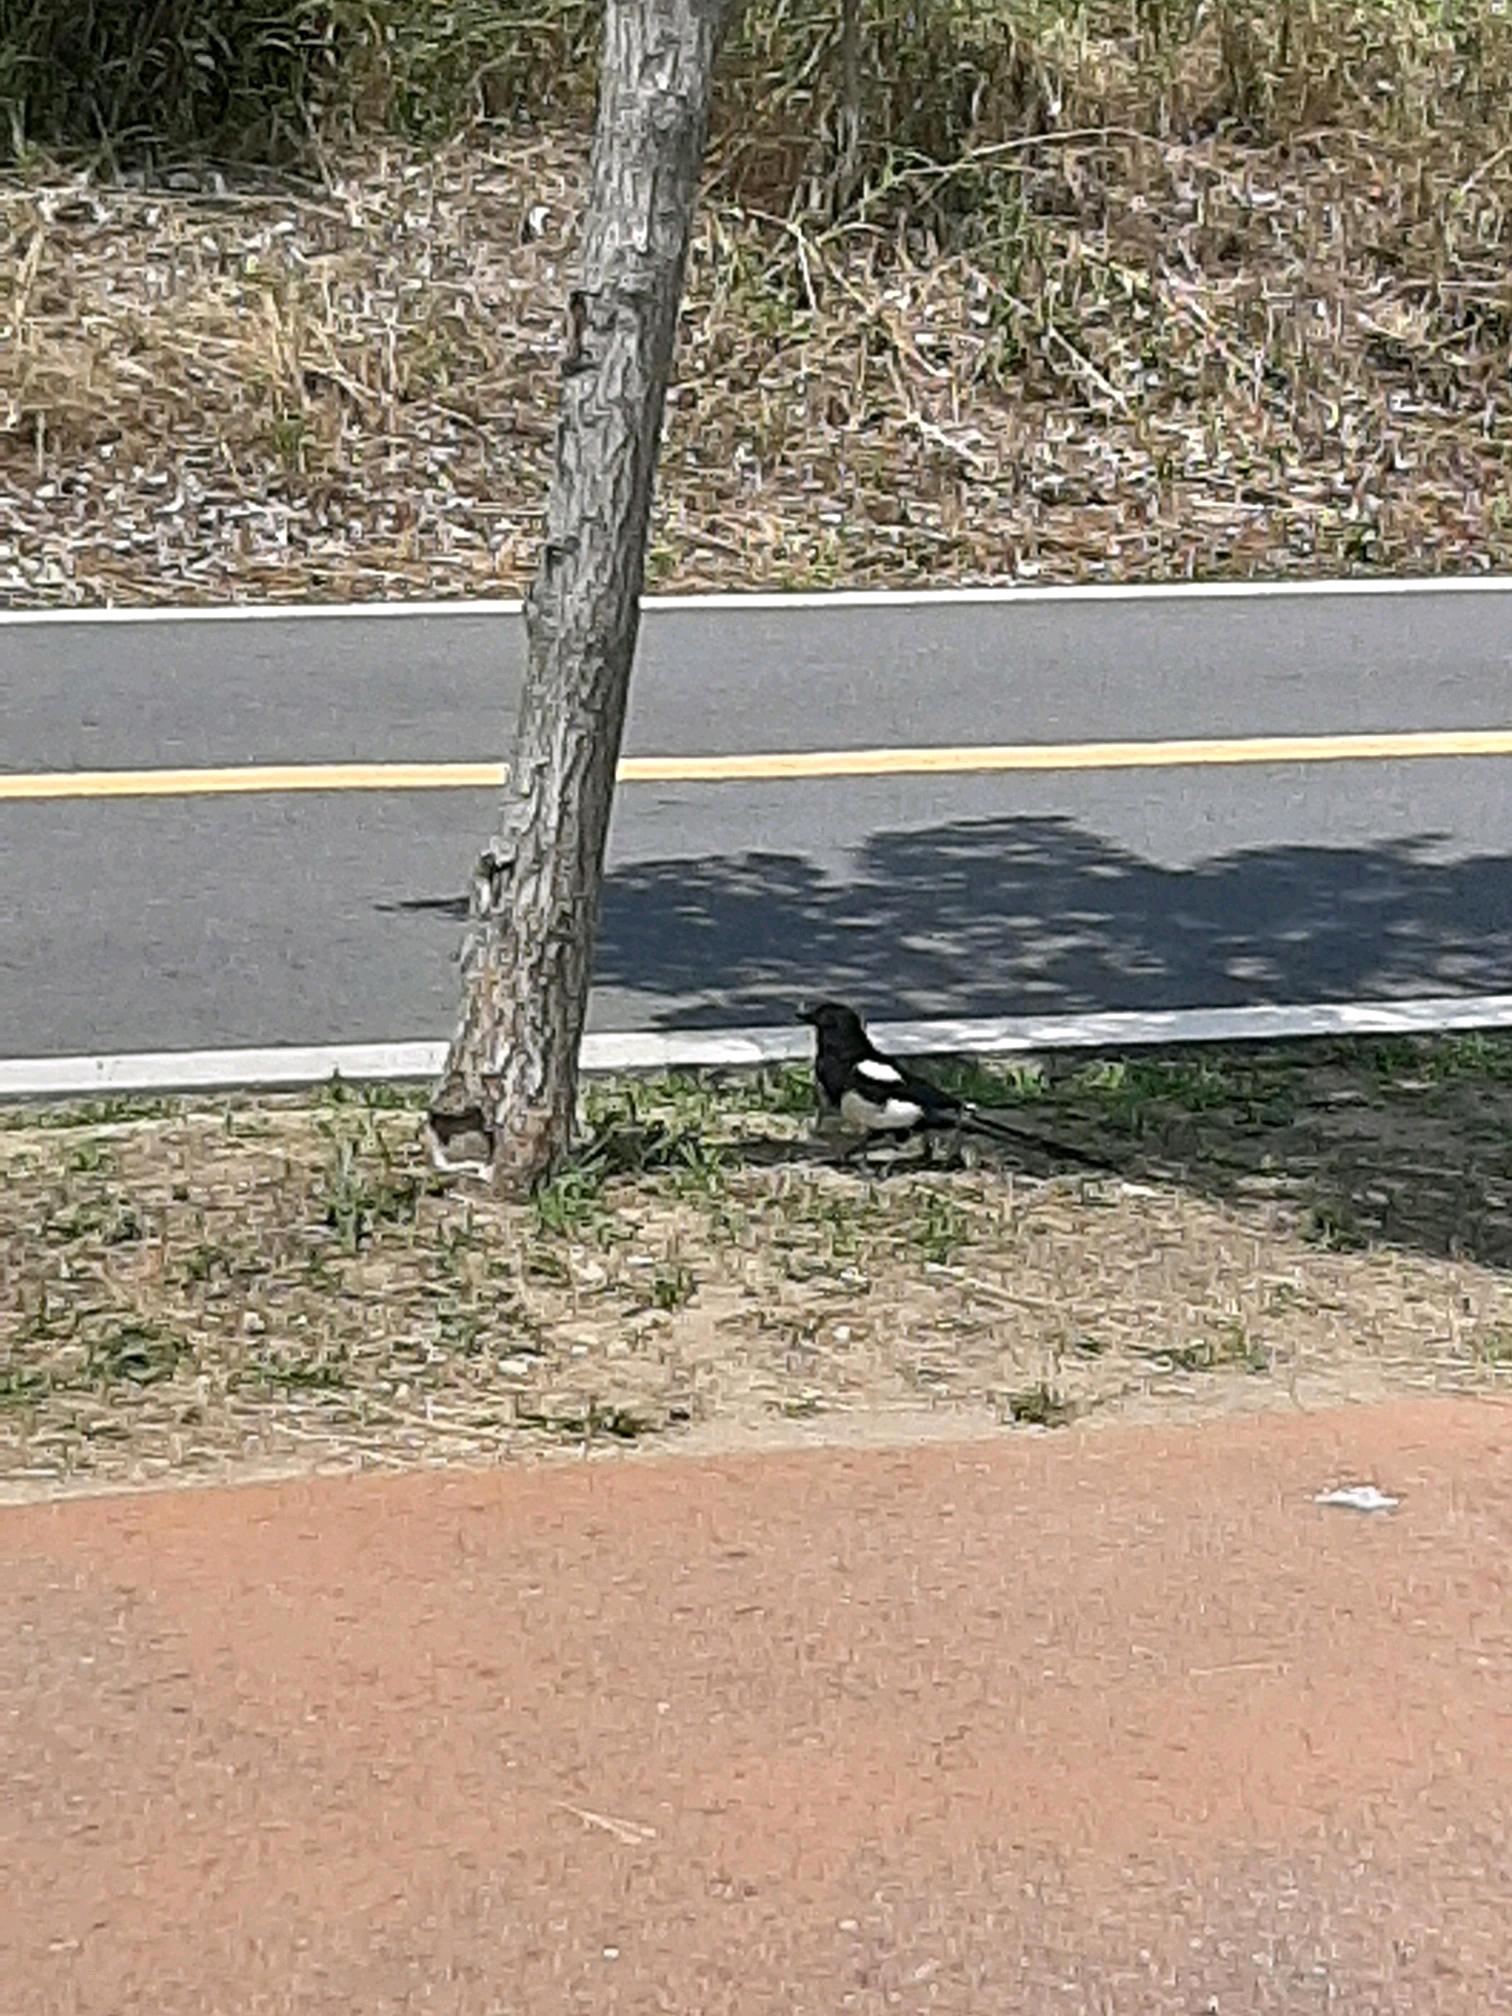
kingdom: Animalia
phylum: Chordata
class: Aves
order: Passeriformes
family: Corvidae
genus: Pica
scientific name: Pica serica
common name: Oriental magpie
